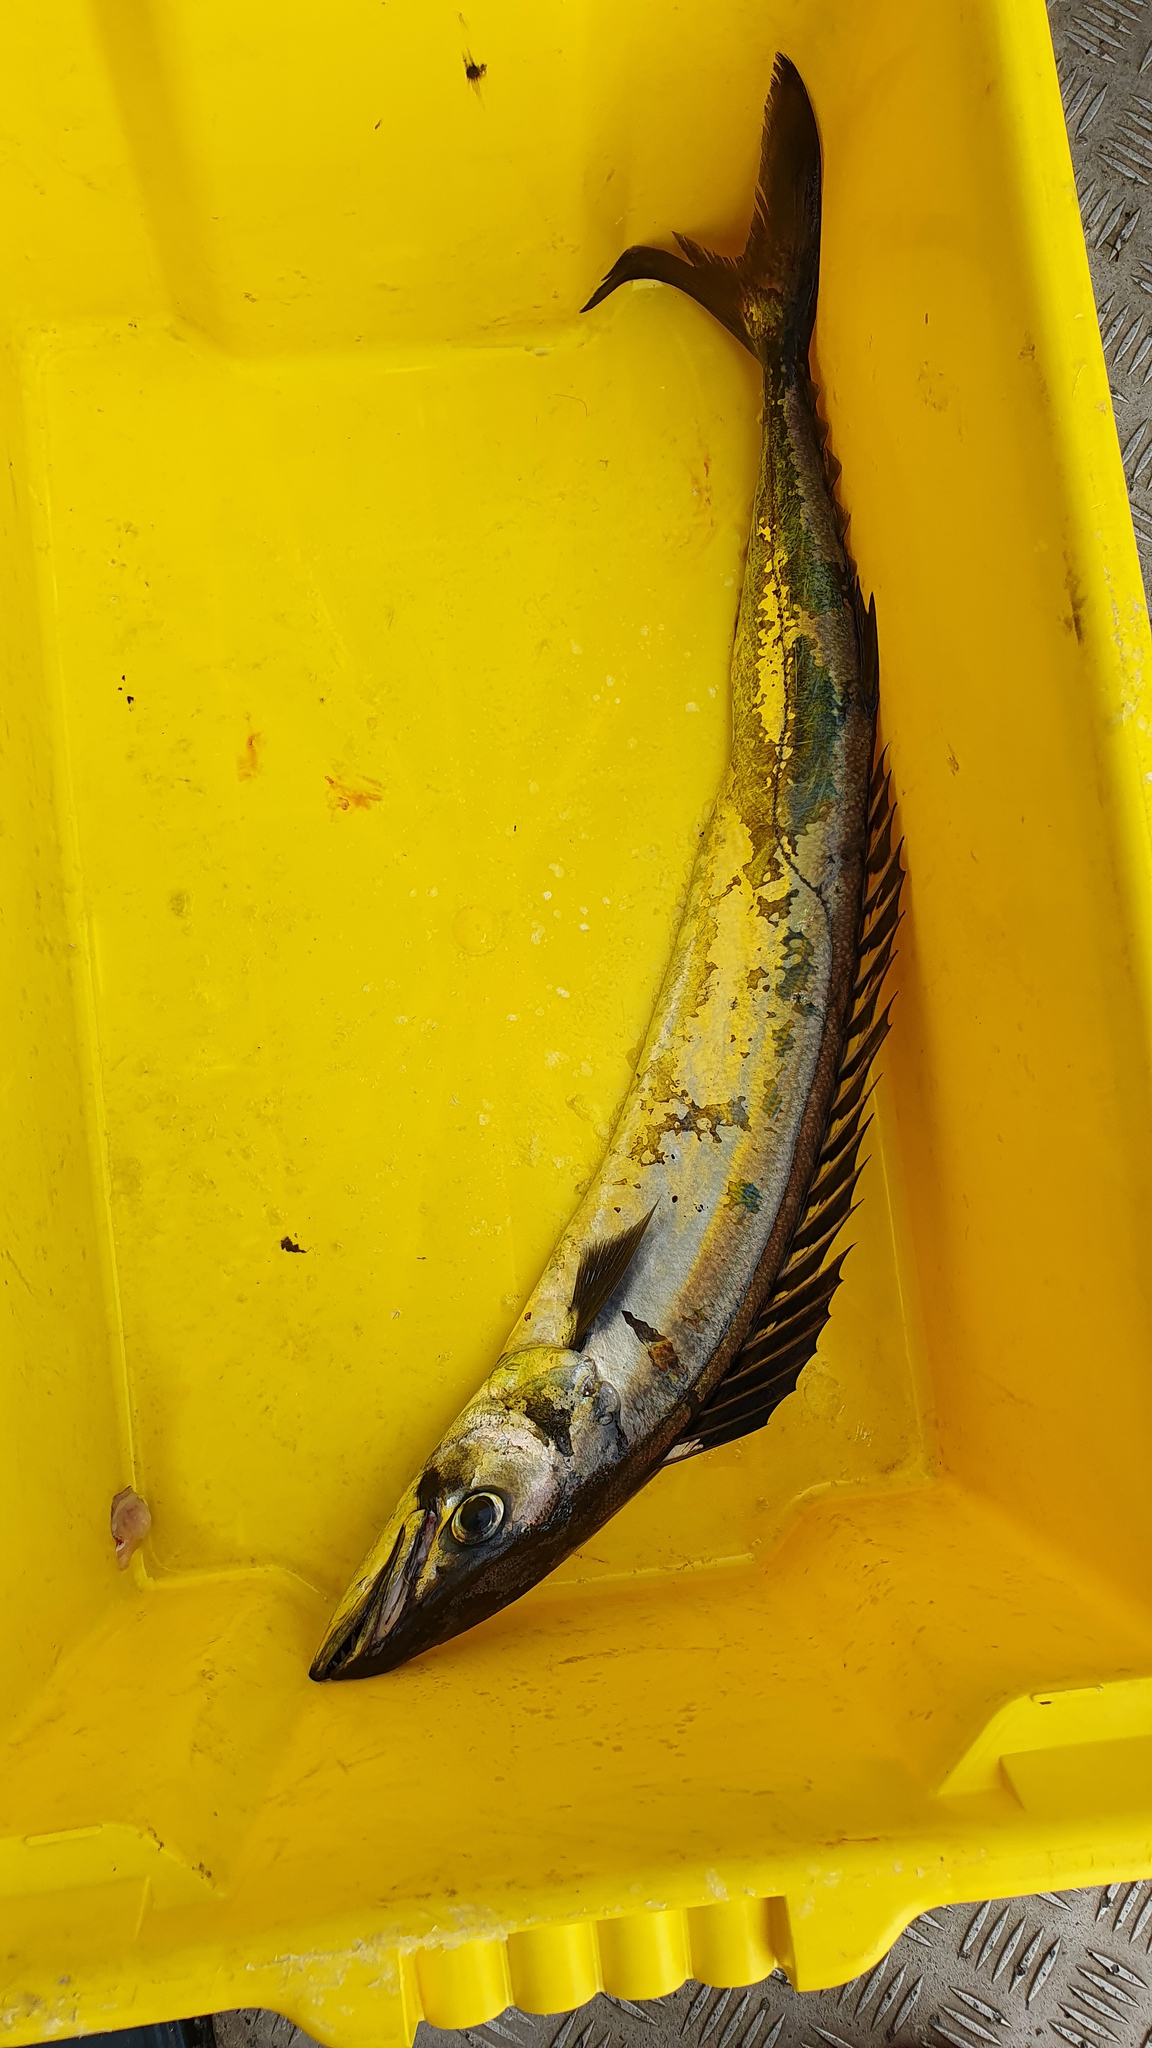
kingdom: Animalia
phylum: Chordata
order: Perciformes
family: Gempylidae
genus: Thyrsites
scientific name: Thyrsites atun
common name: Snoek
